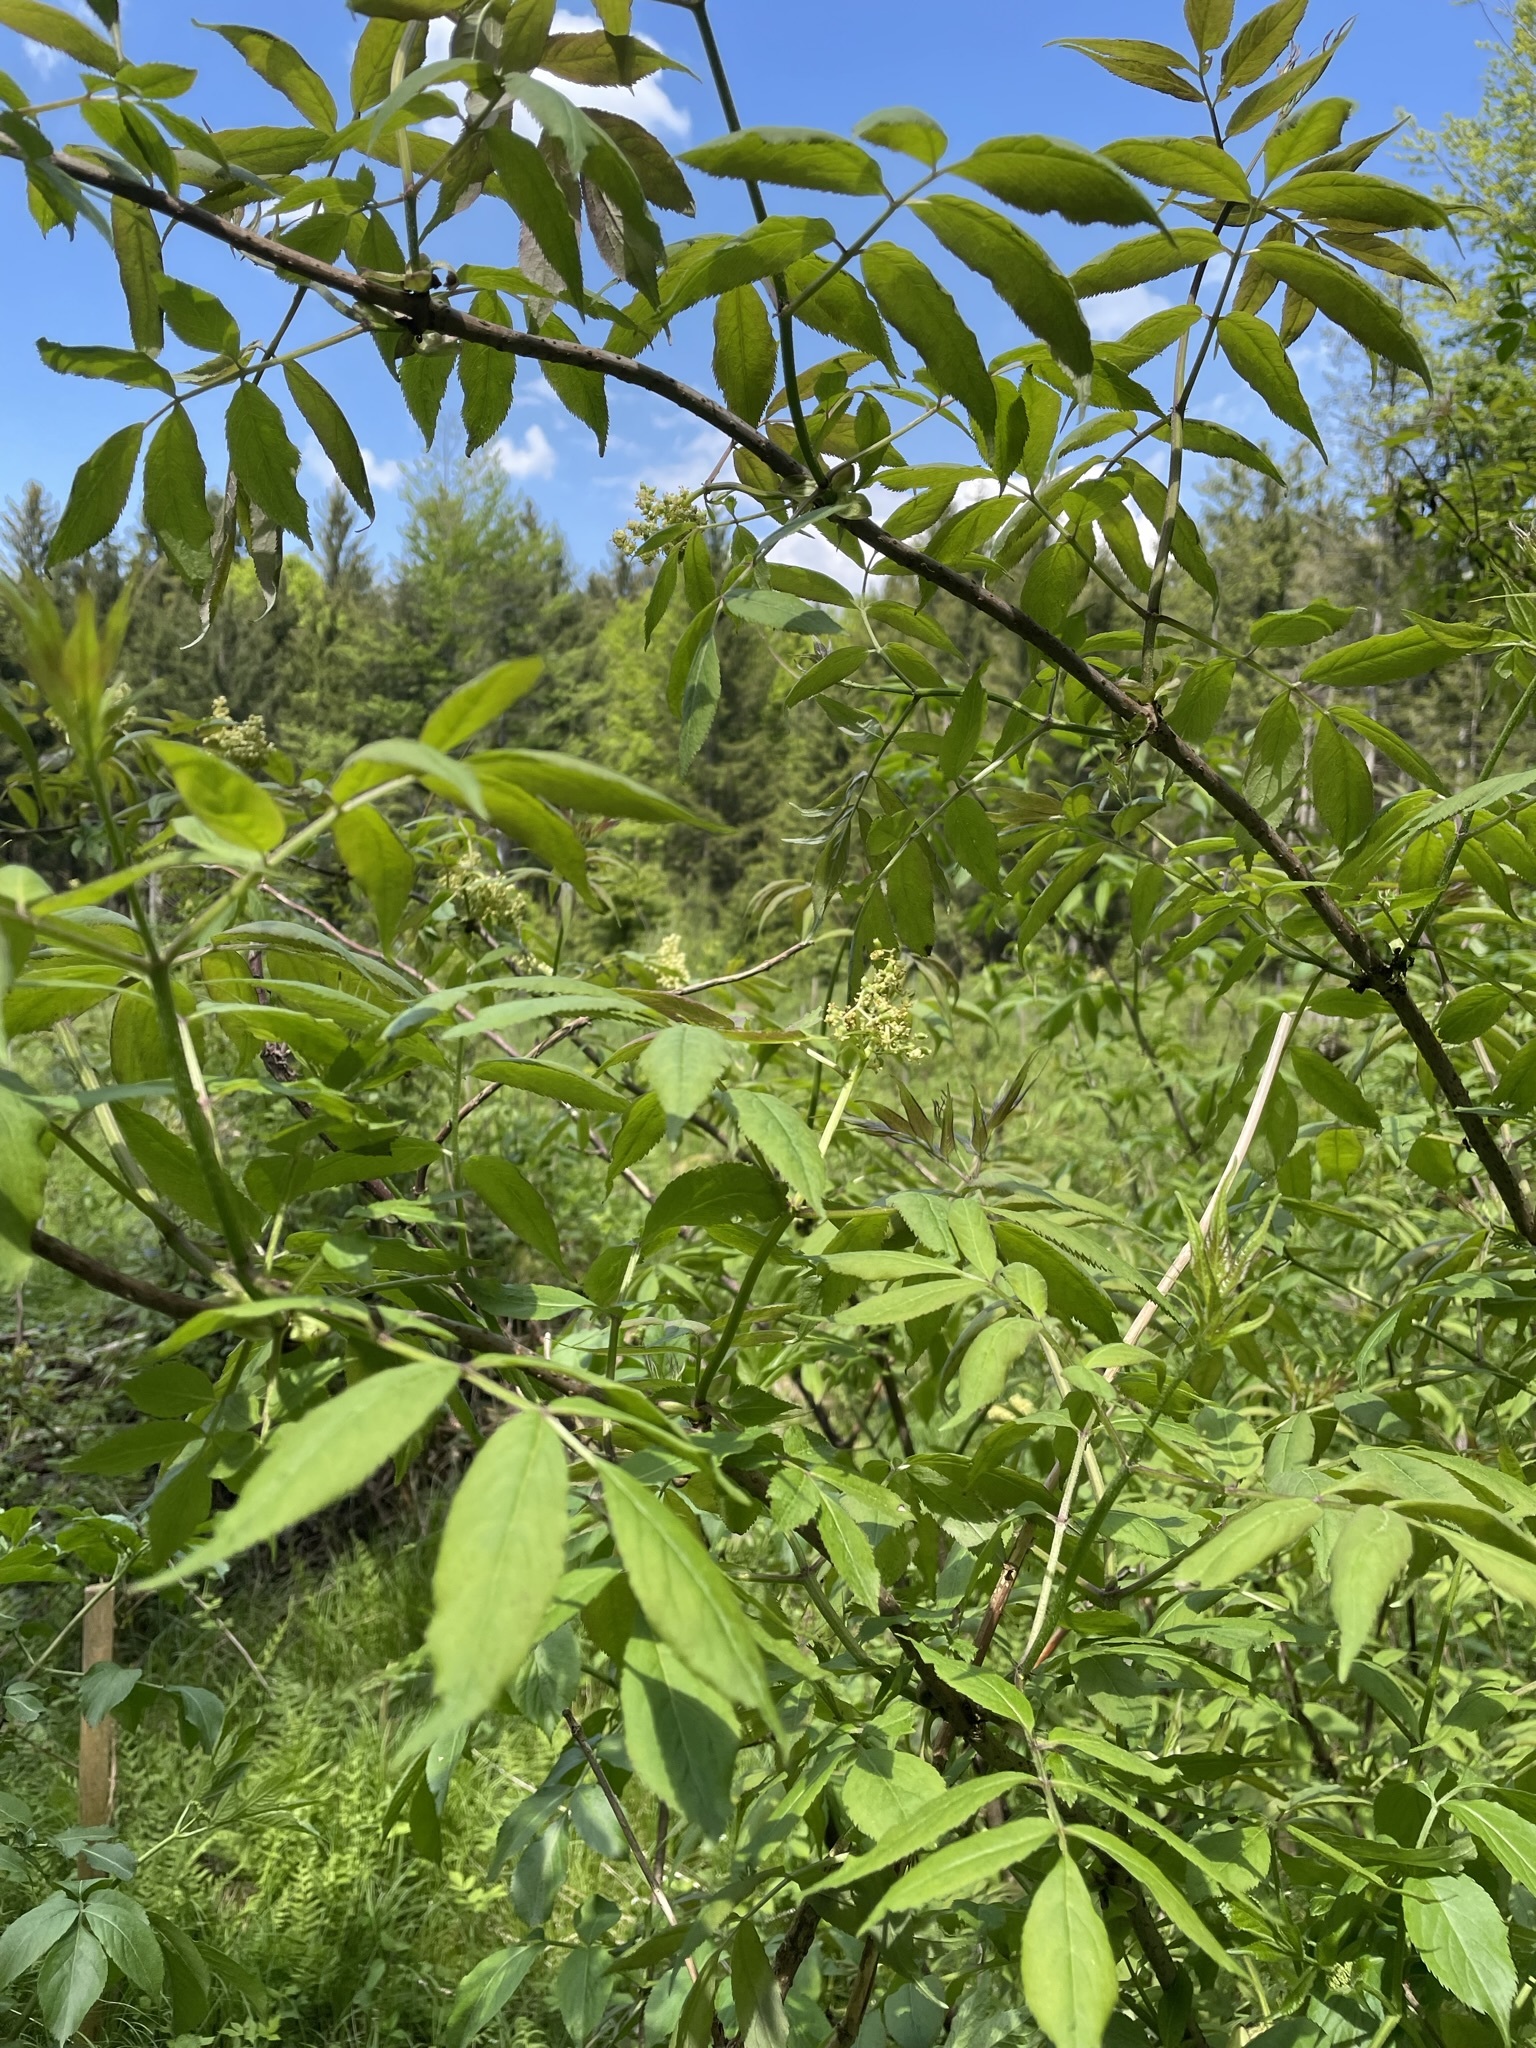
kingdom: Plantae
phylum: Tracheophyta
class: Magnoliopsida
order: Dipsacales
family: Viburnaceae
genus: Sambucus
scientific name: Sambucus racemosa
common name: Red-berried elder
